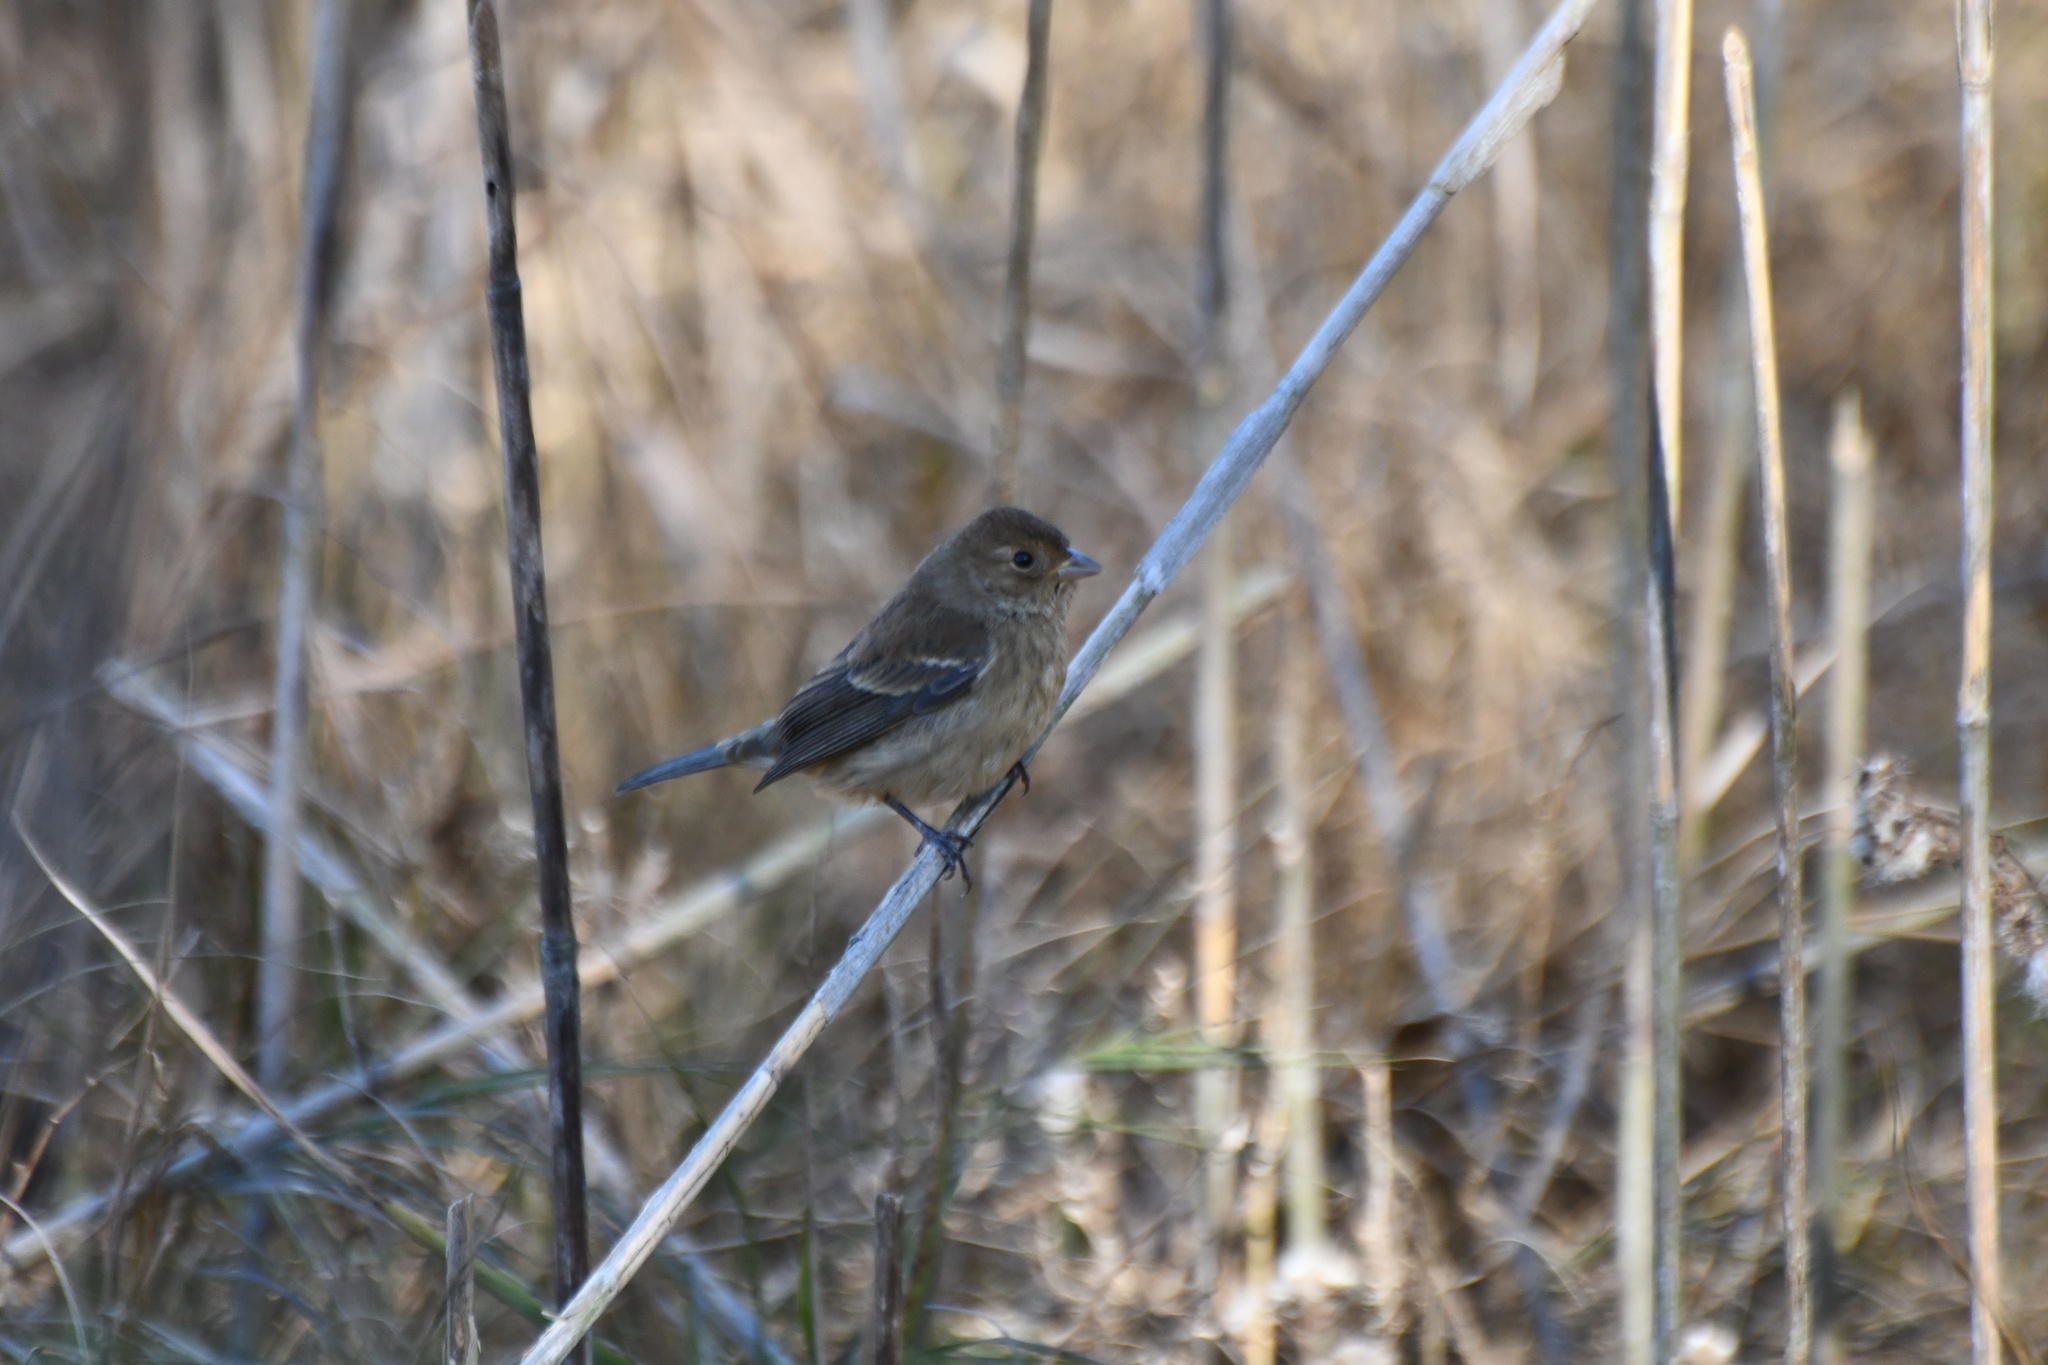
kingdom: Animalia
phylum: Chordata
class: Aves
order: Passeriformes
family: Cardinalidae
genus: Passerina
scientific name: Passerina cyanea
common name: Indigo bunting
